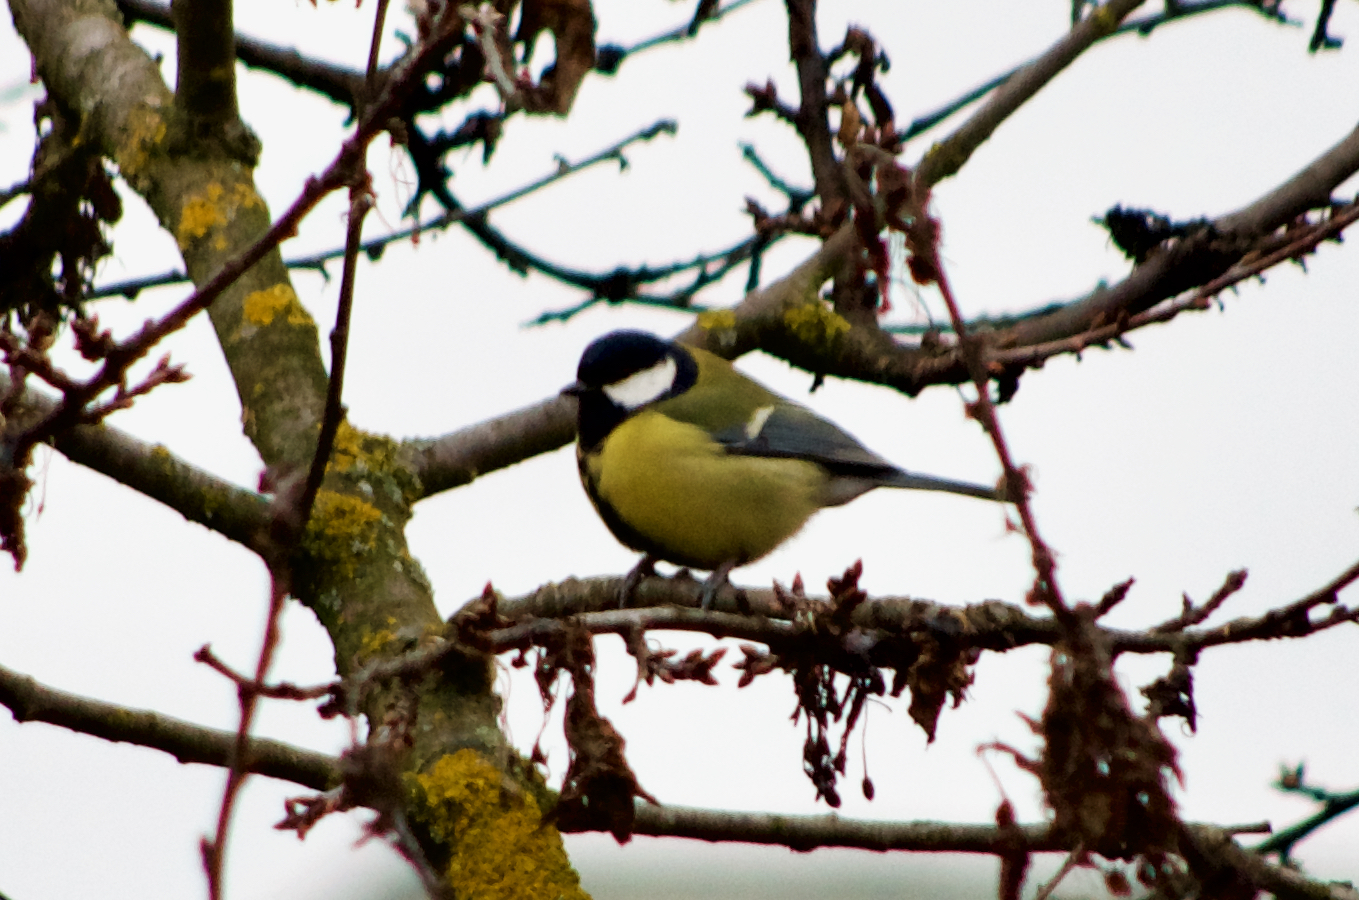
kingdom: Animalia
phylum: Chordata
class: Aves
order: Passeriformes
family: Paridae
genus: Parus
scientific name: Parus major
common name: Great tit
